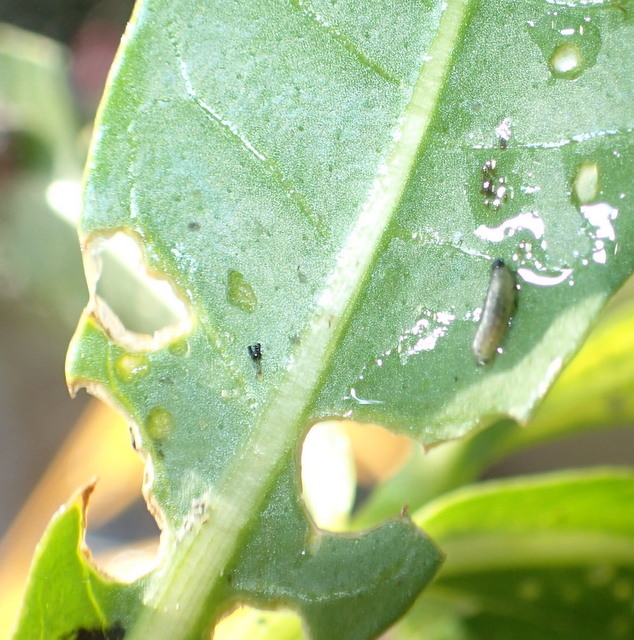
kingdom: Animalia
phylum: Arthropoda
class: Insecta
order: Coleoptera
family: Chrysomelidae
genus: Agasicles
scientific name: Agasicles hygrophila
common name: Alligatorweed flea beetle
